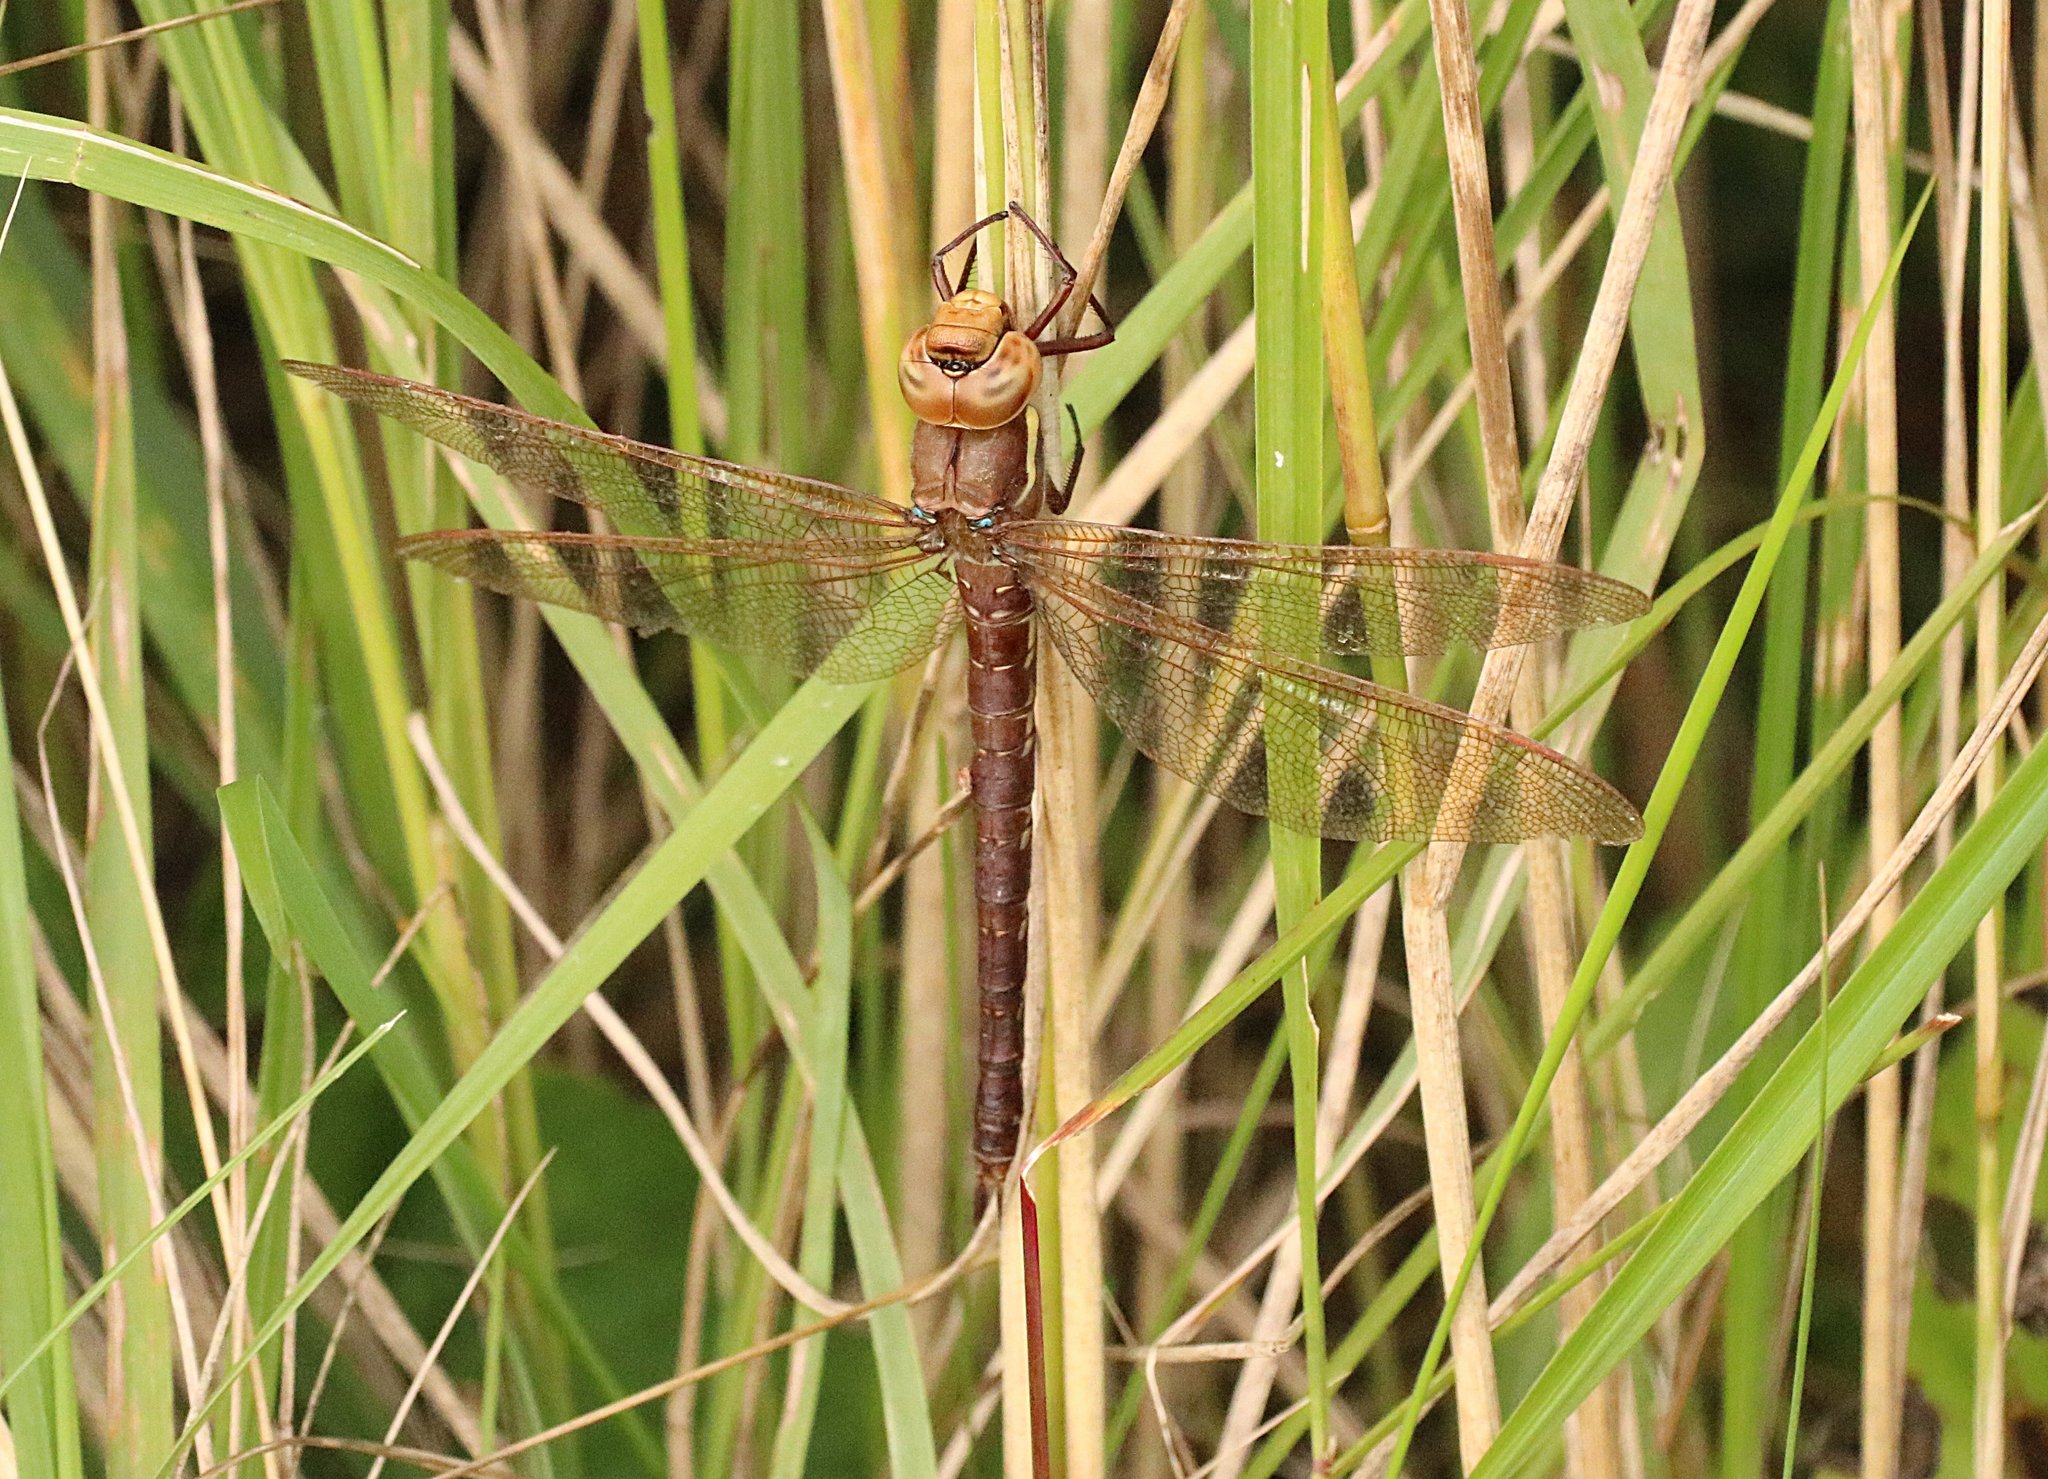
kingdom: Animalia
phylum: Arthropoda
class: Insecta
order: Odonata
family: Aeshnidae
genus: Aeshna
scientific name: Aeshna grandis
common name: Brown hawker
